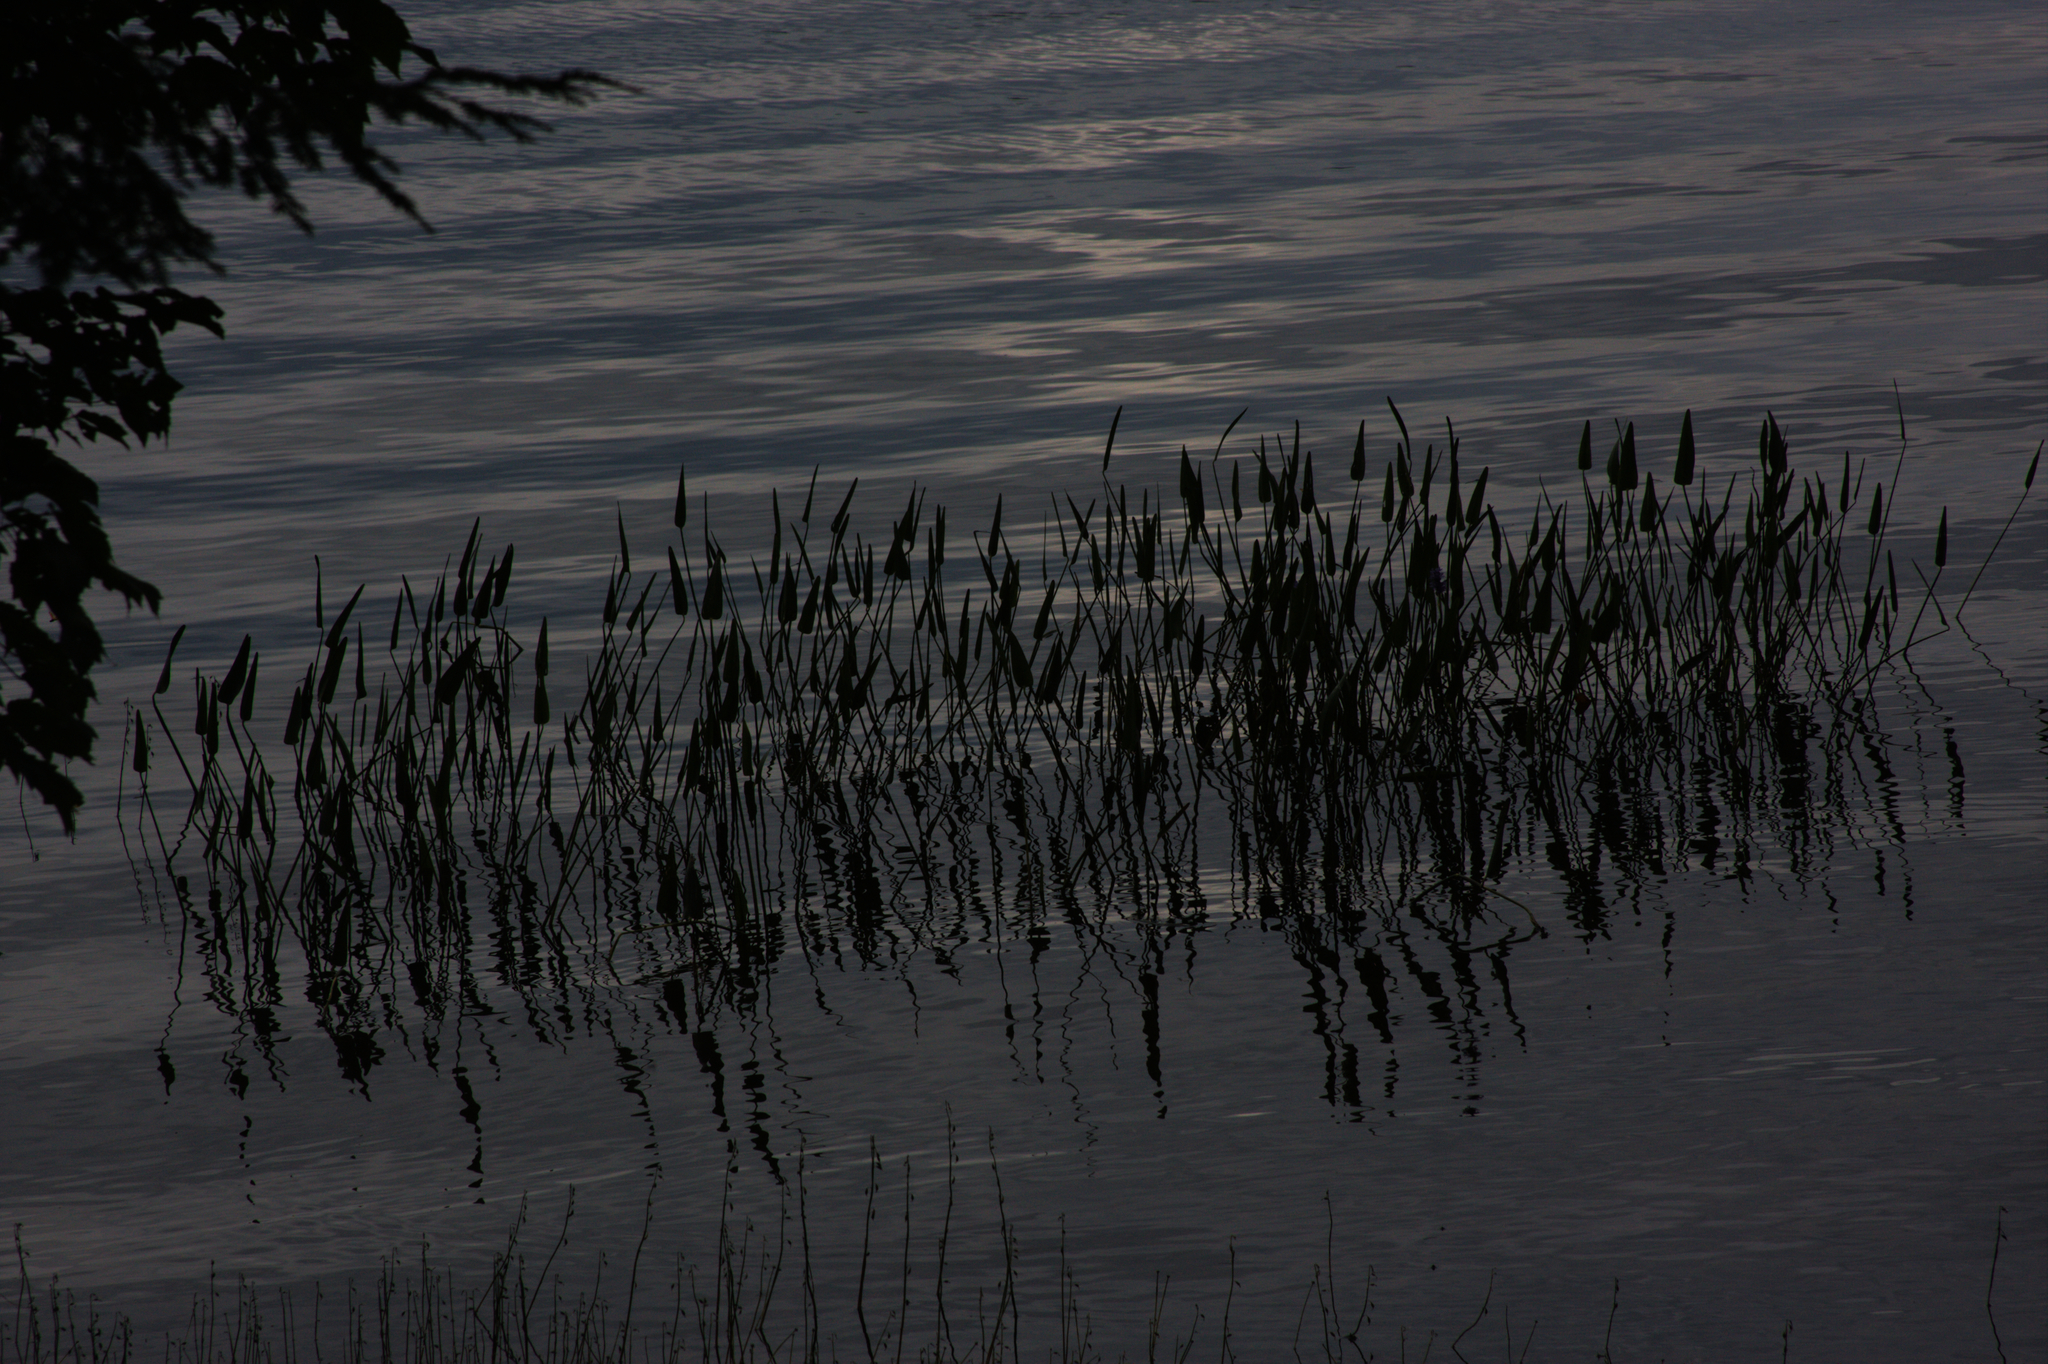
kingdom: Plantae
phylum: Tracheophyta
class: Liliopsida
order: Commelinales
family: Pontederiaceae
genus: Pontederia
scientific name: Pontederia cordata
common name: Pickerelweed
